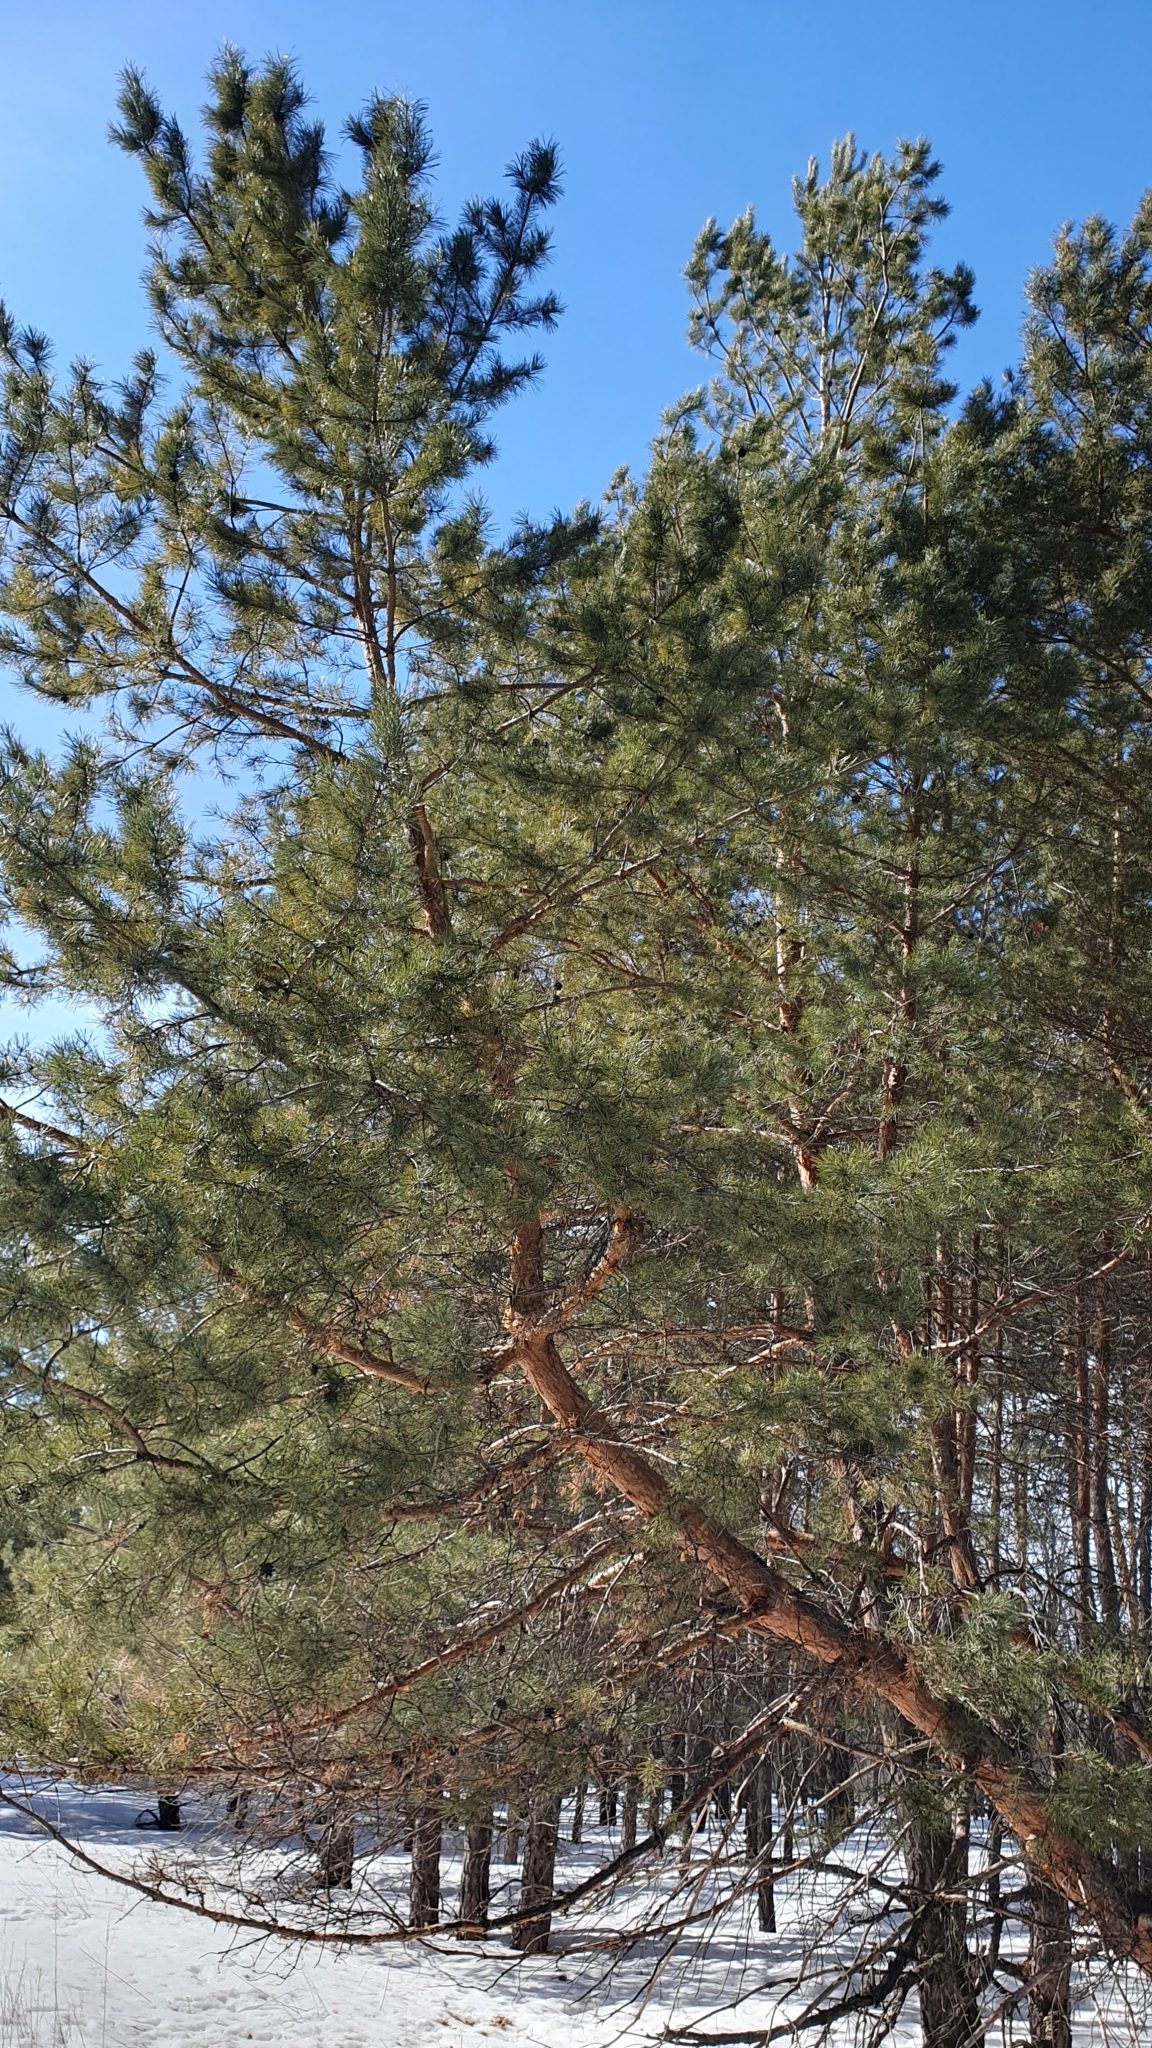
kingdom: Plantae
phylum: Tracheophyta
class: Pinopsida
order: Pinales
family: Pinaceae
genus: Pinus
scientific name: Pinus sylvestris
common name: Scots pine
